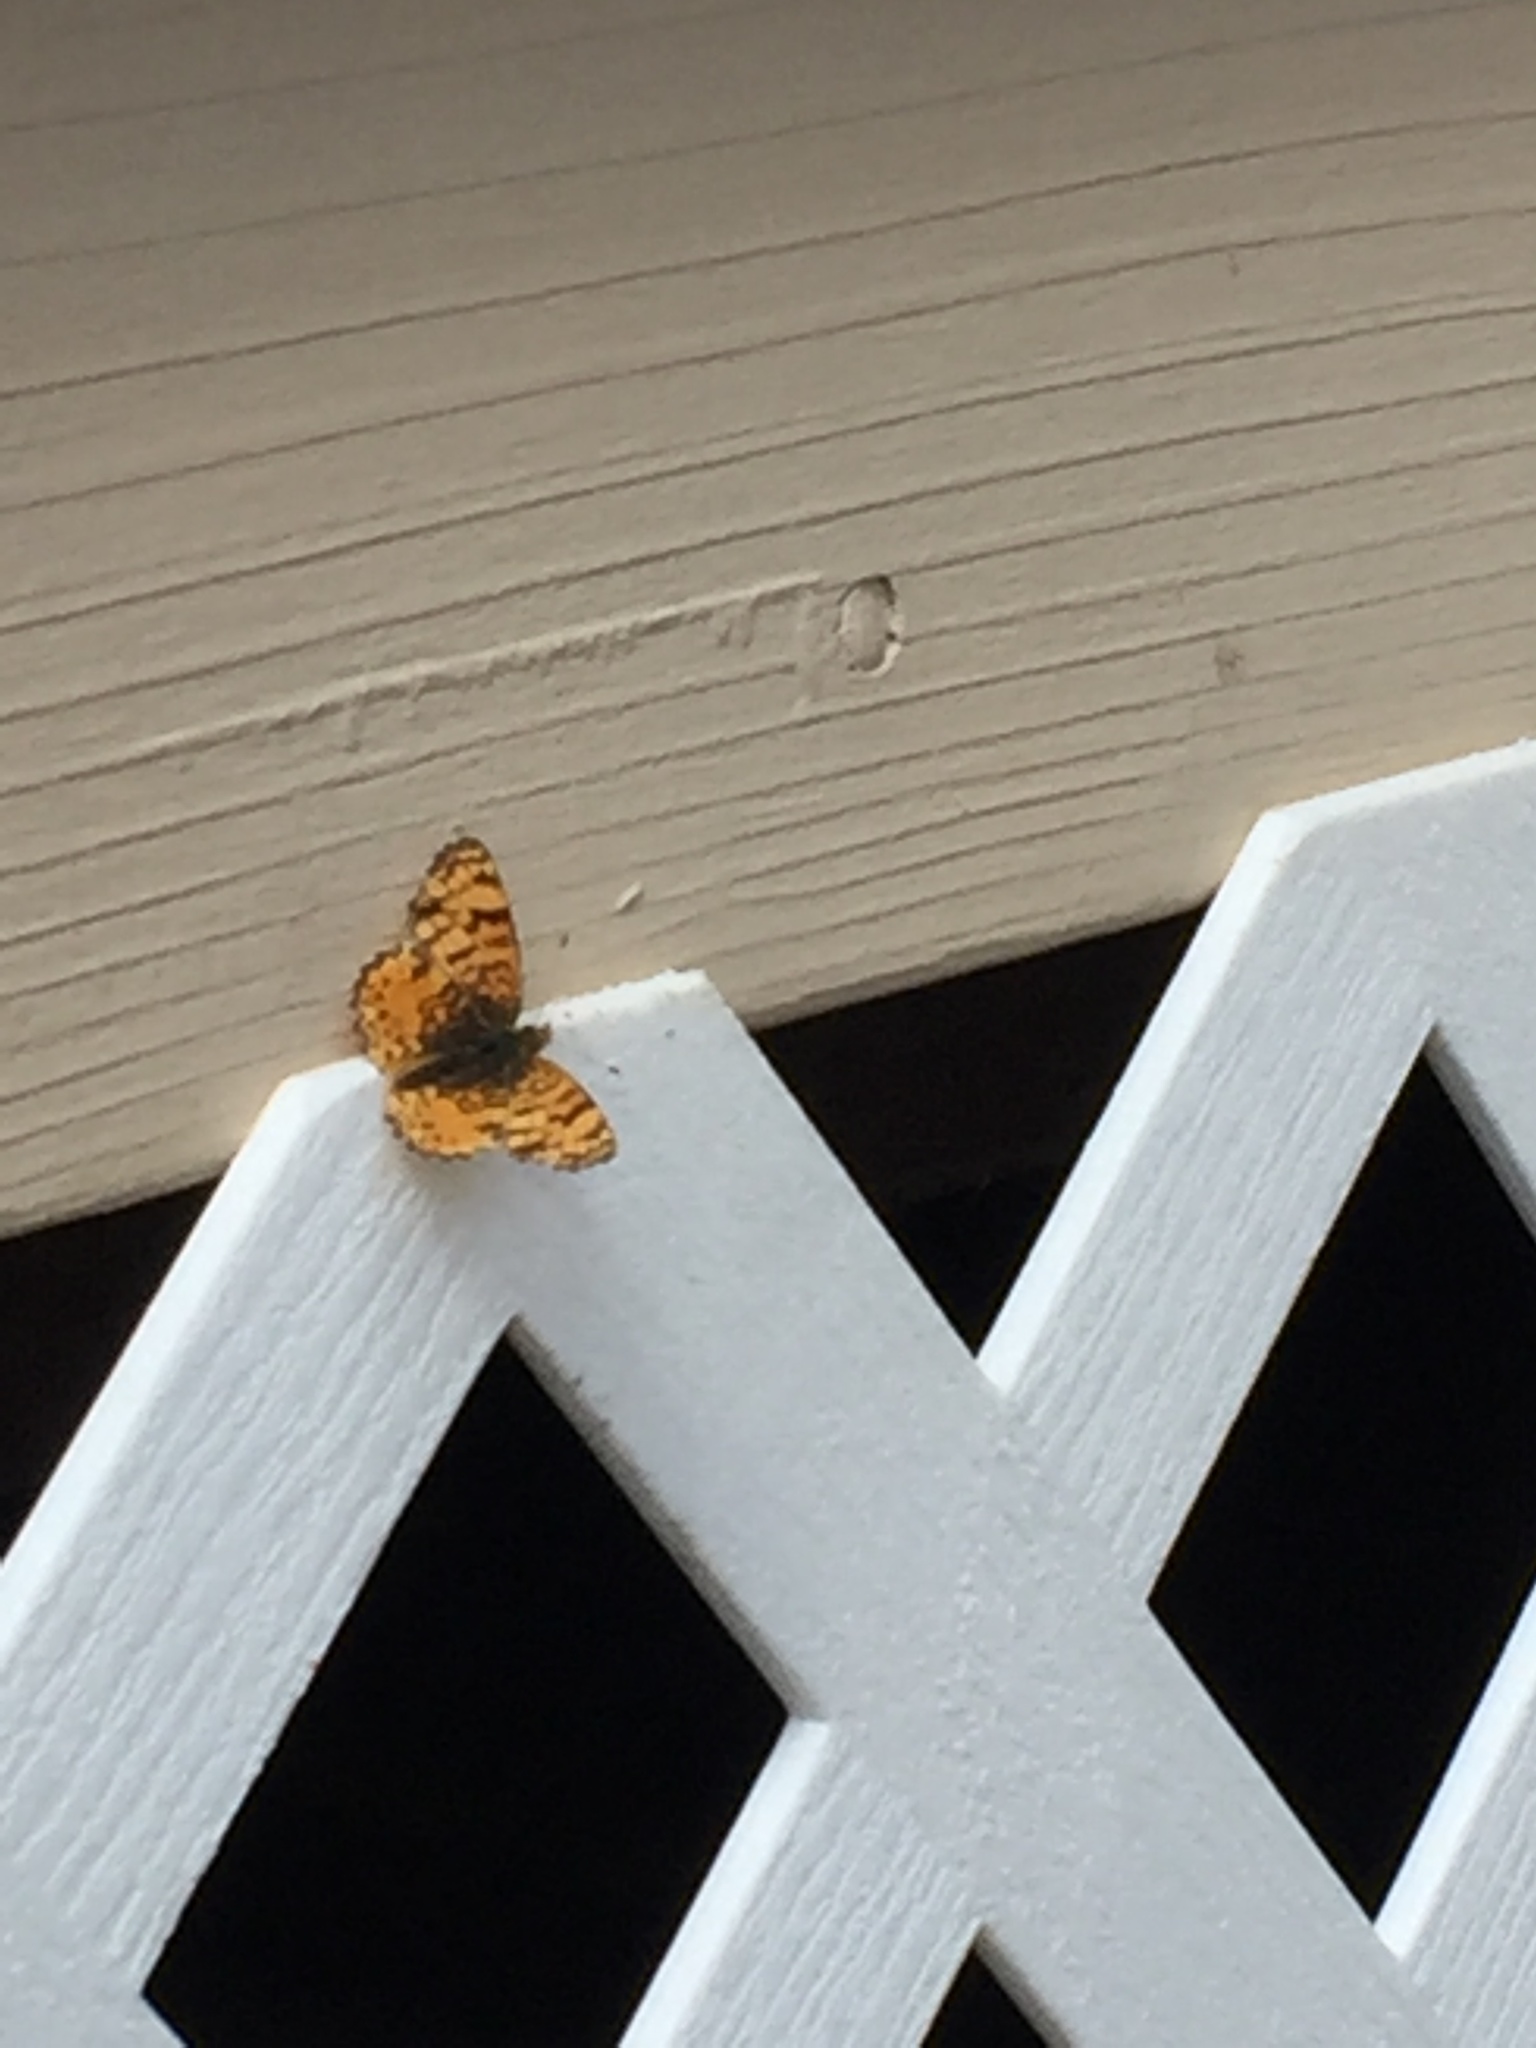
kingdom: Animalia
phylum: Arthropoda
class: Insecta
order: Lepidoptera
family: Nymphalidae
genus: Eresia
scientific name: Eresia aveyrona
